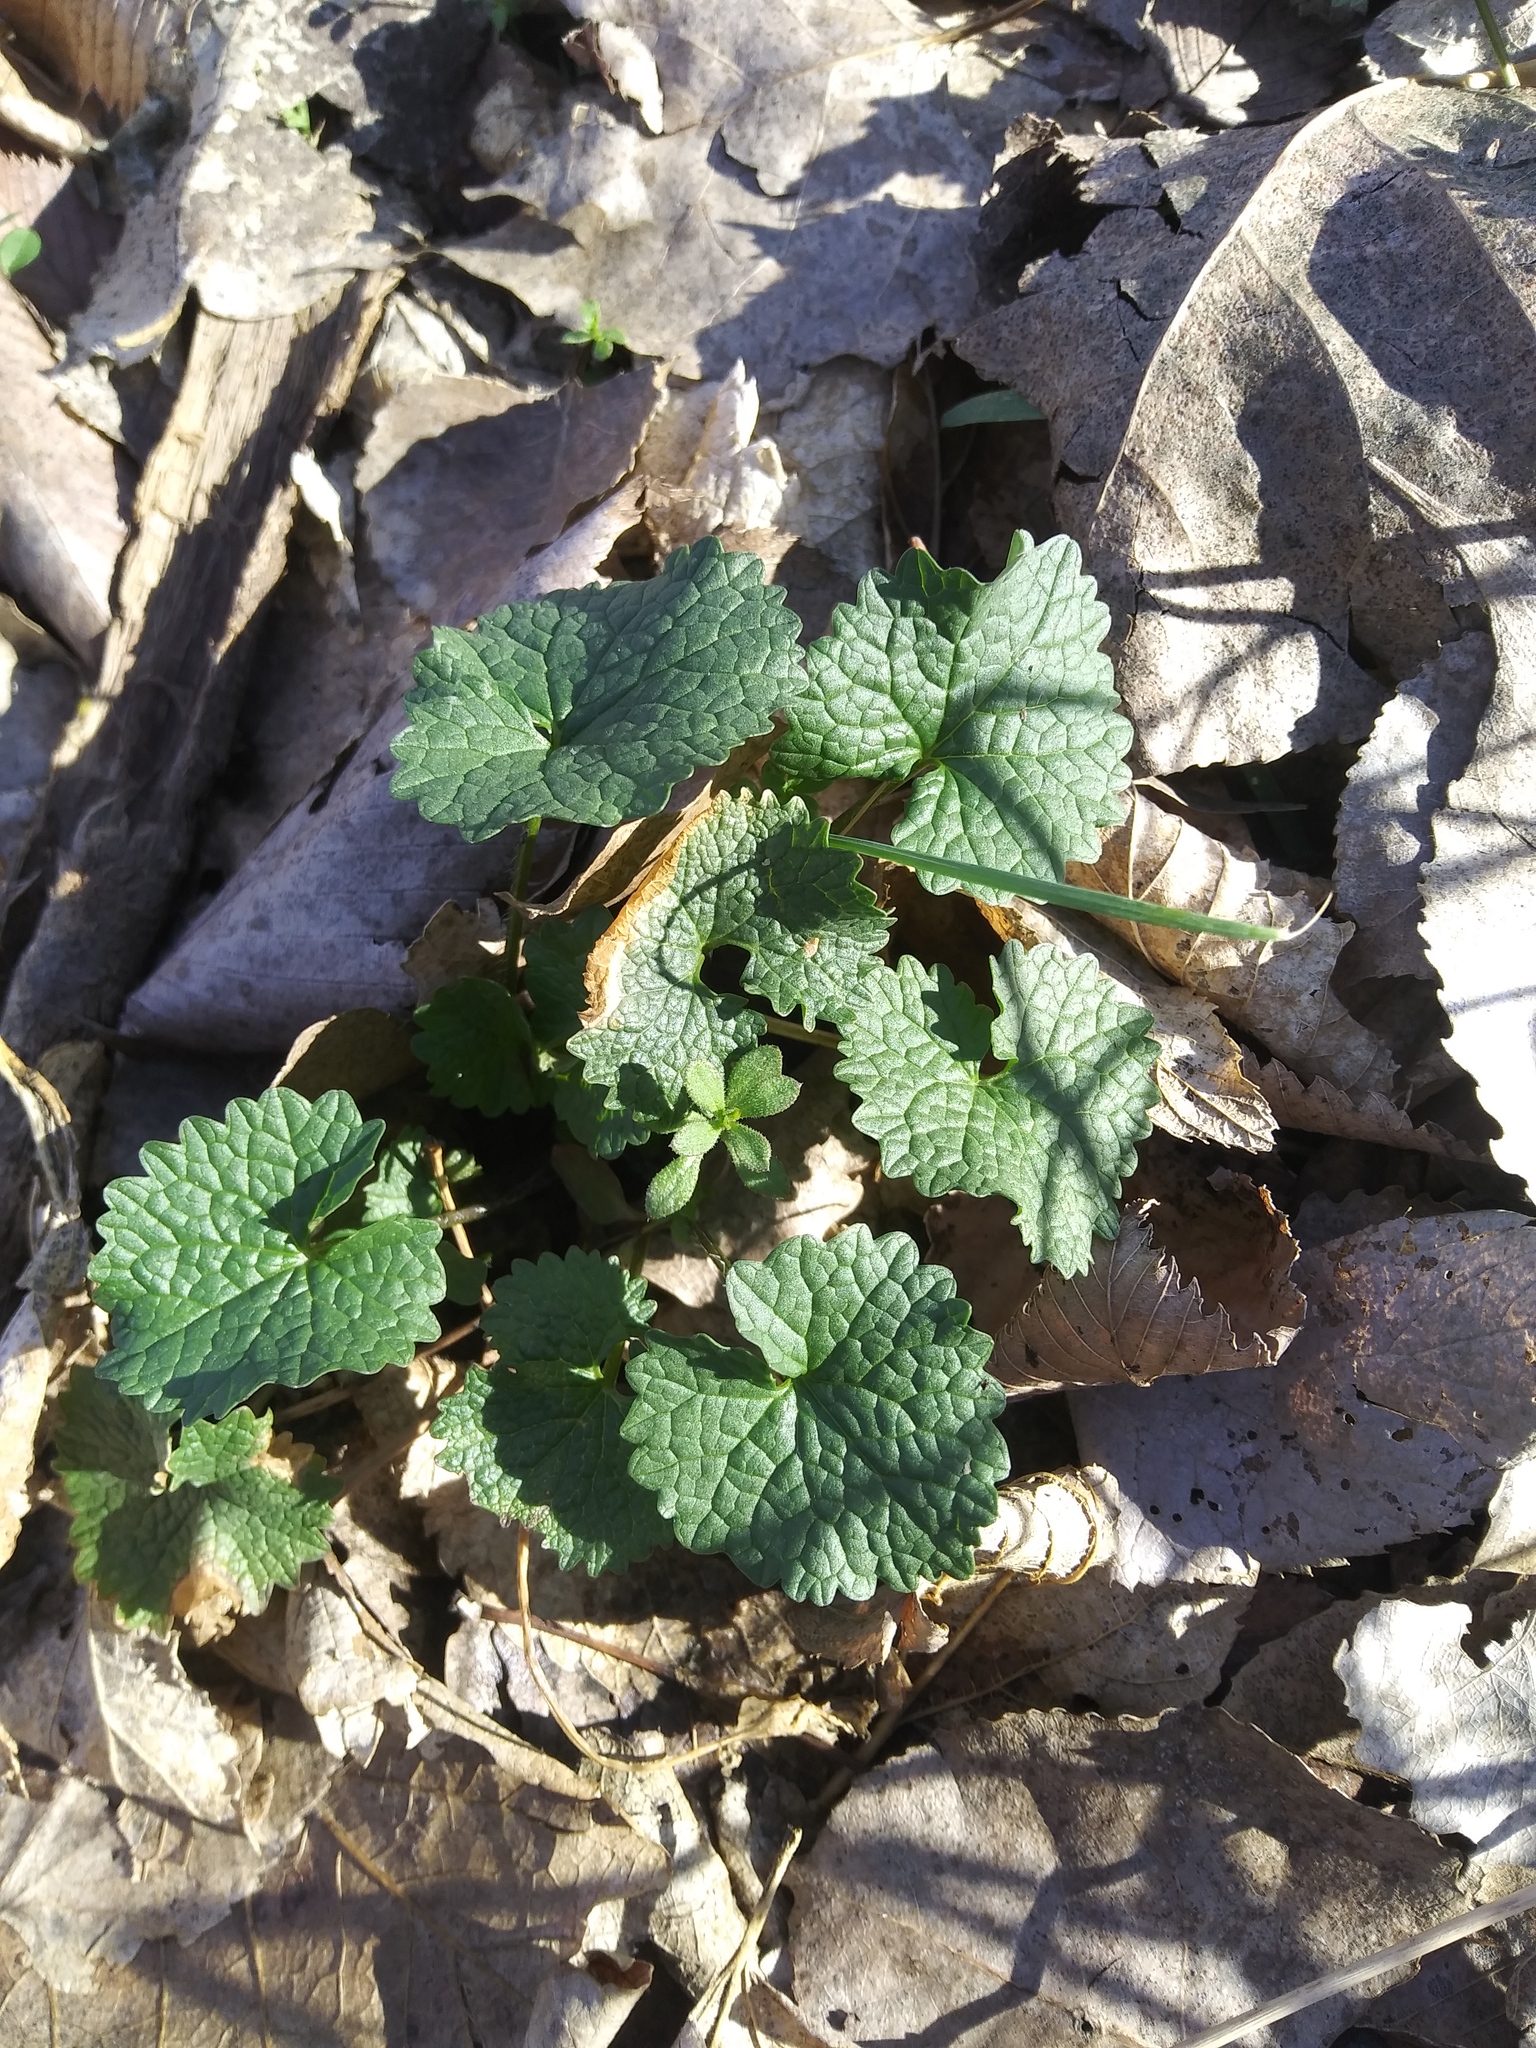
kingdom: Plantae
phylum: Tracheophyta
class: Magnoliopsida
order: Brassicales
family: Brassicaceae
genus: Alliaria
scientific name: Alliaria petiolata
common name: Garlic mustard
